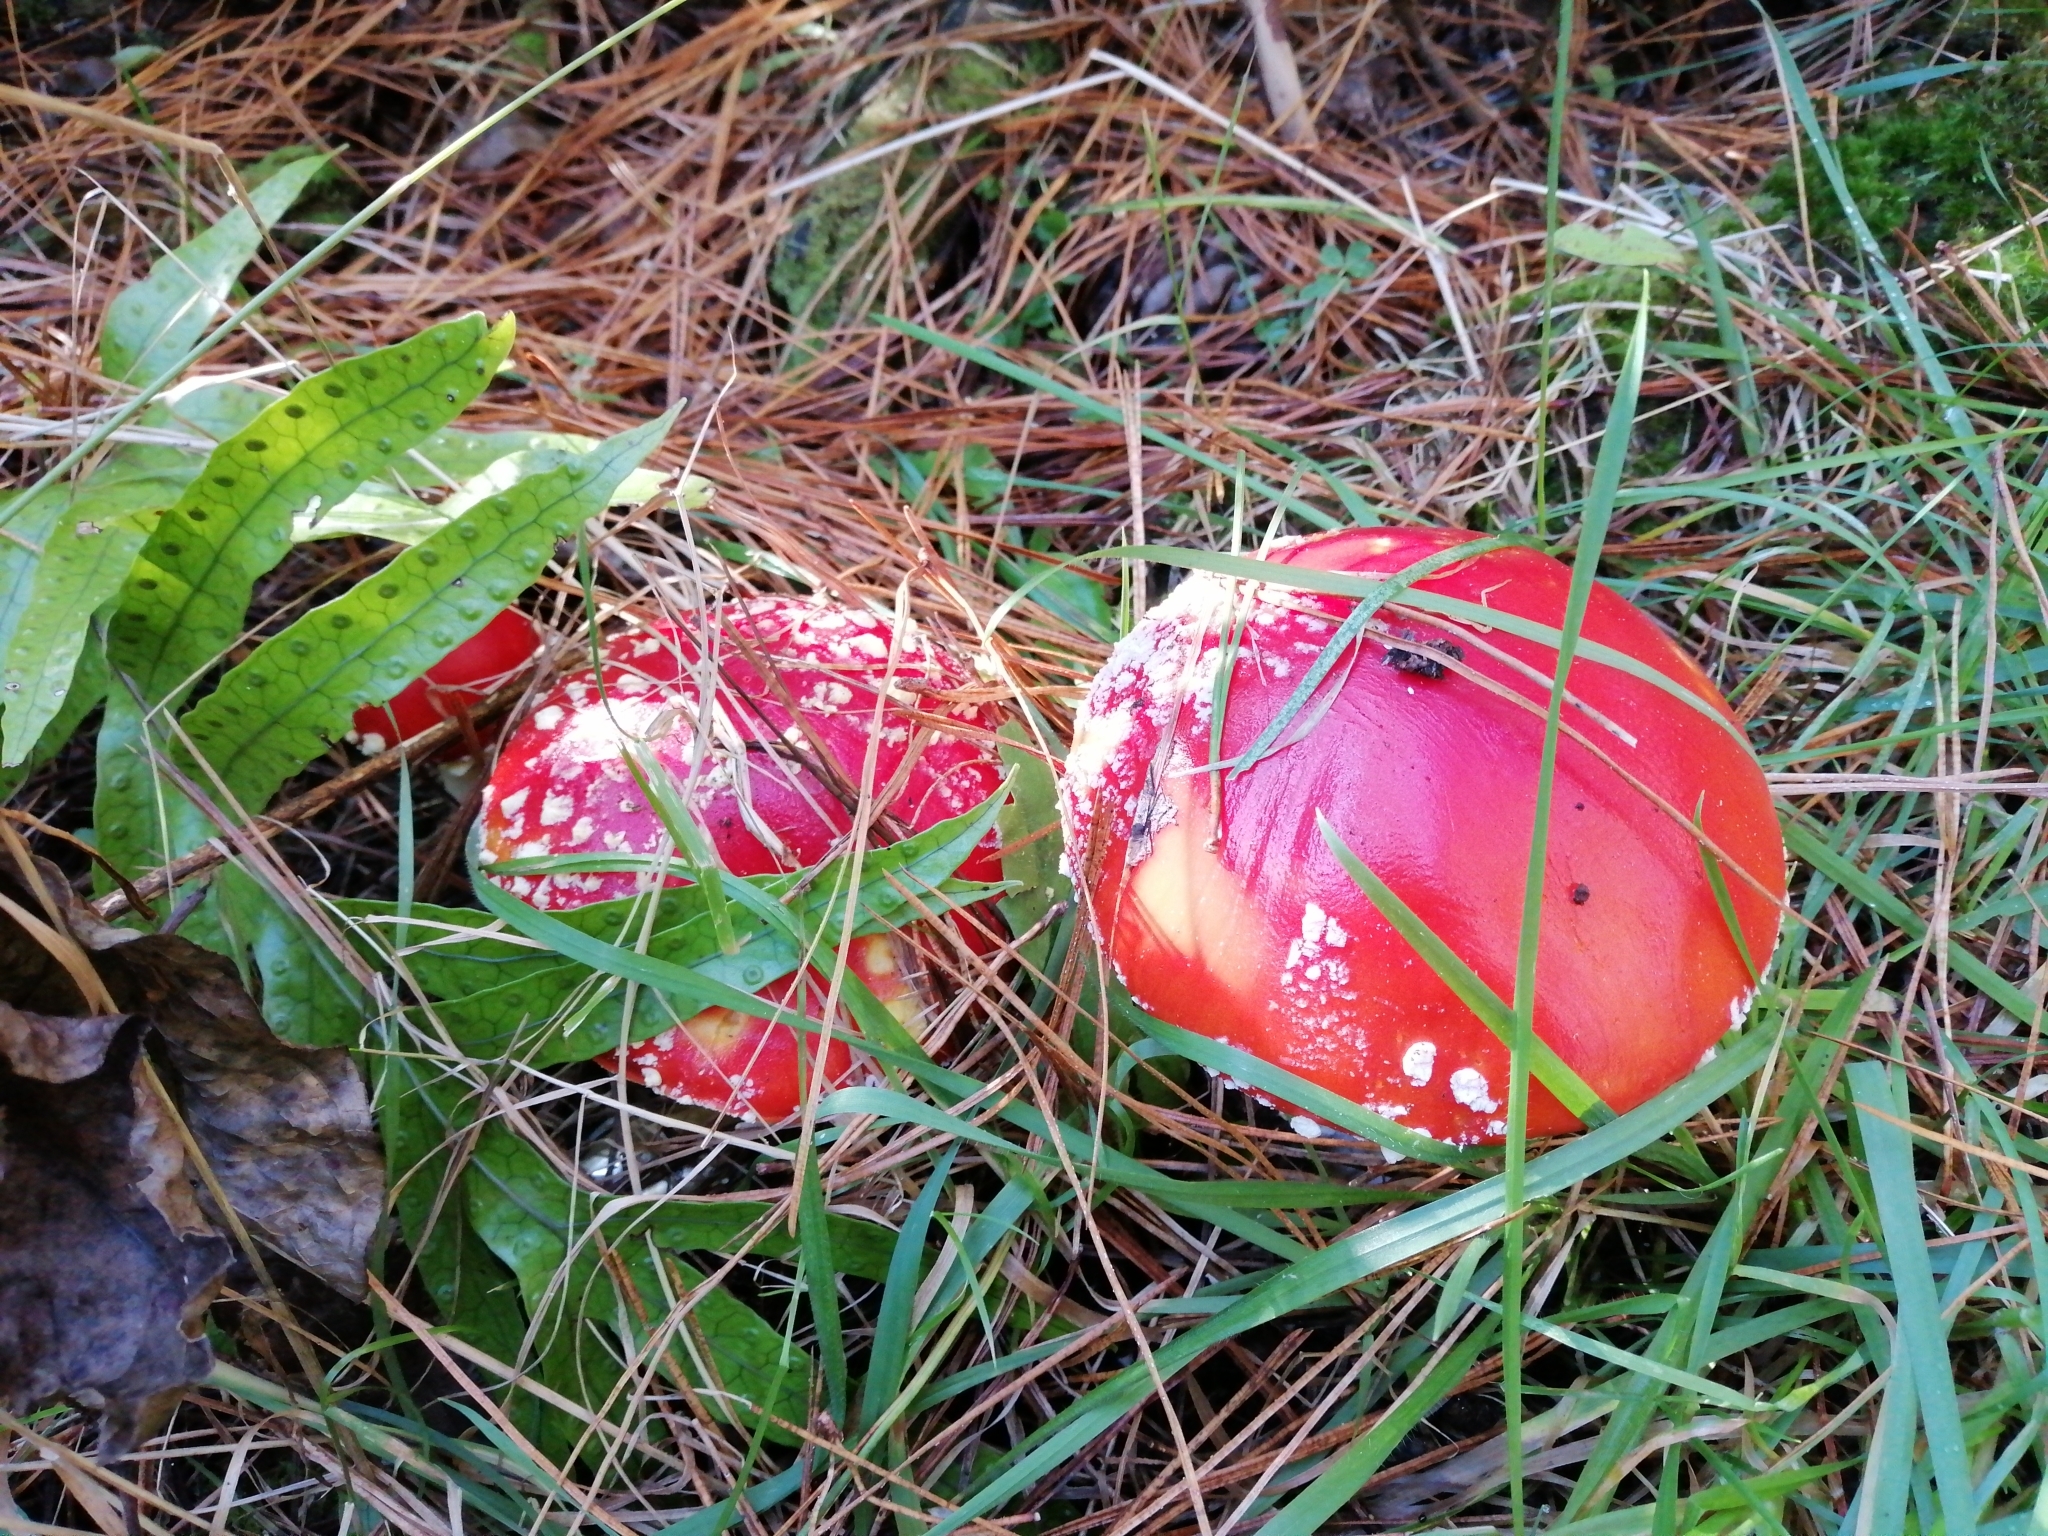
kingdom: Fungi
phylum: Basidiomycota
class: Agaricomycetes
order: Agaricales
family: Amanitaceae
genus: Amanita
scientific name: Amanita muscaria
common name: Fly agaric
